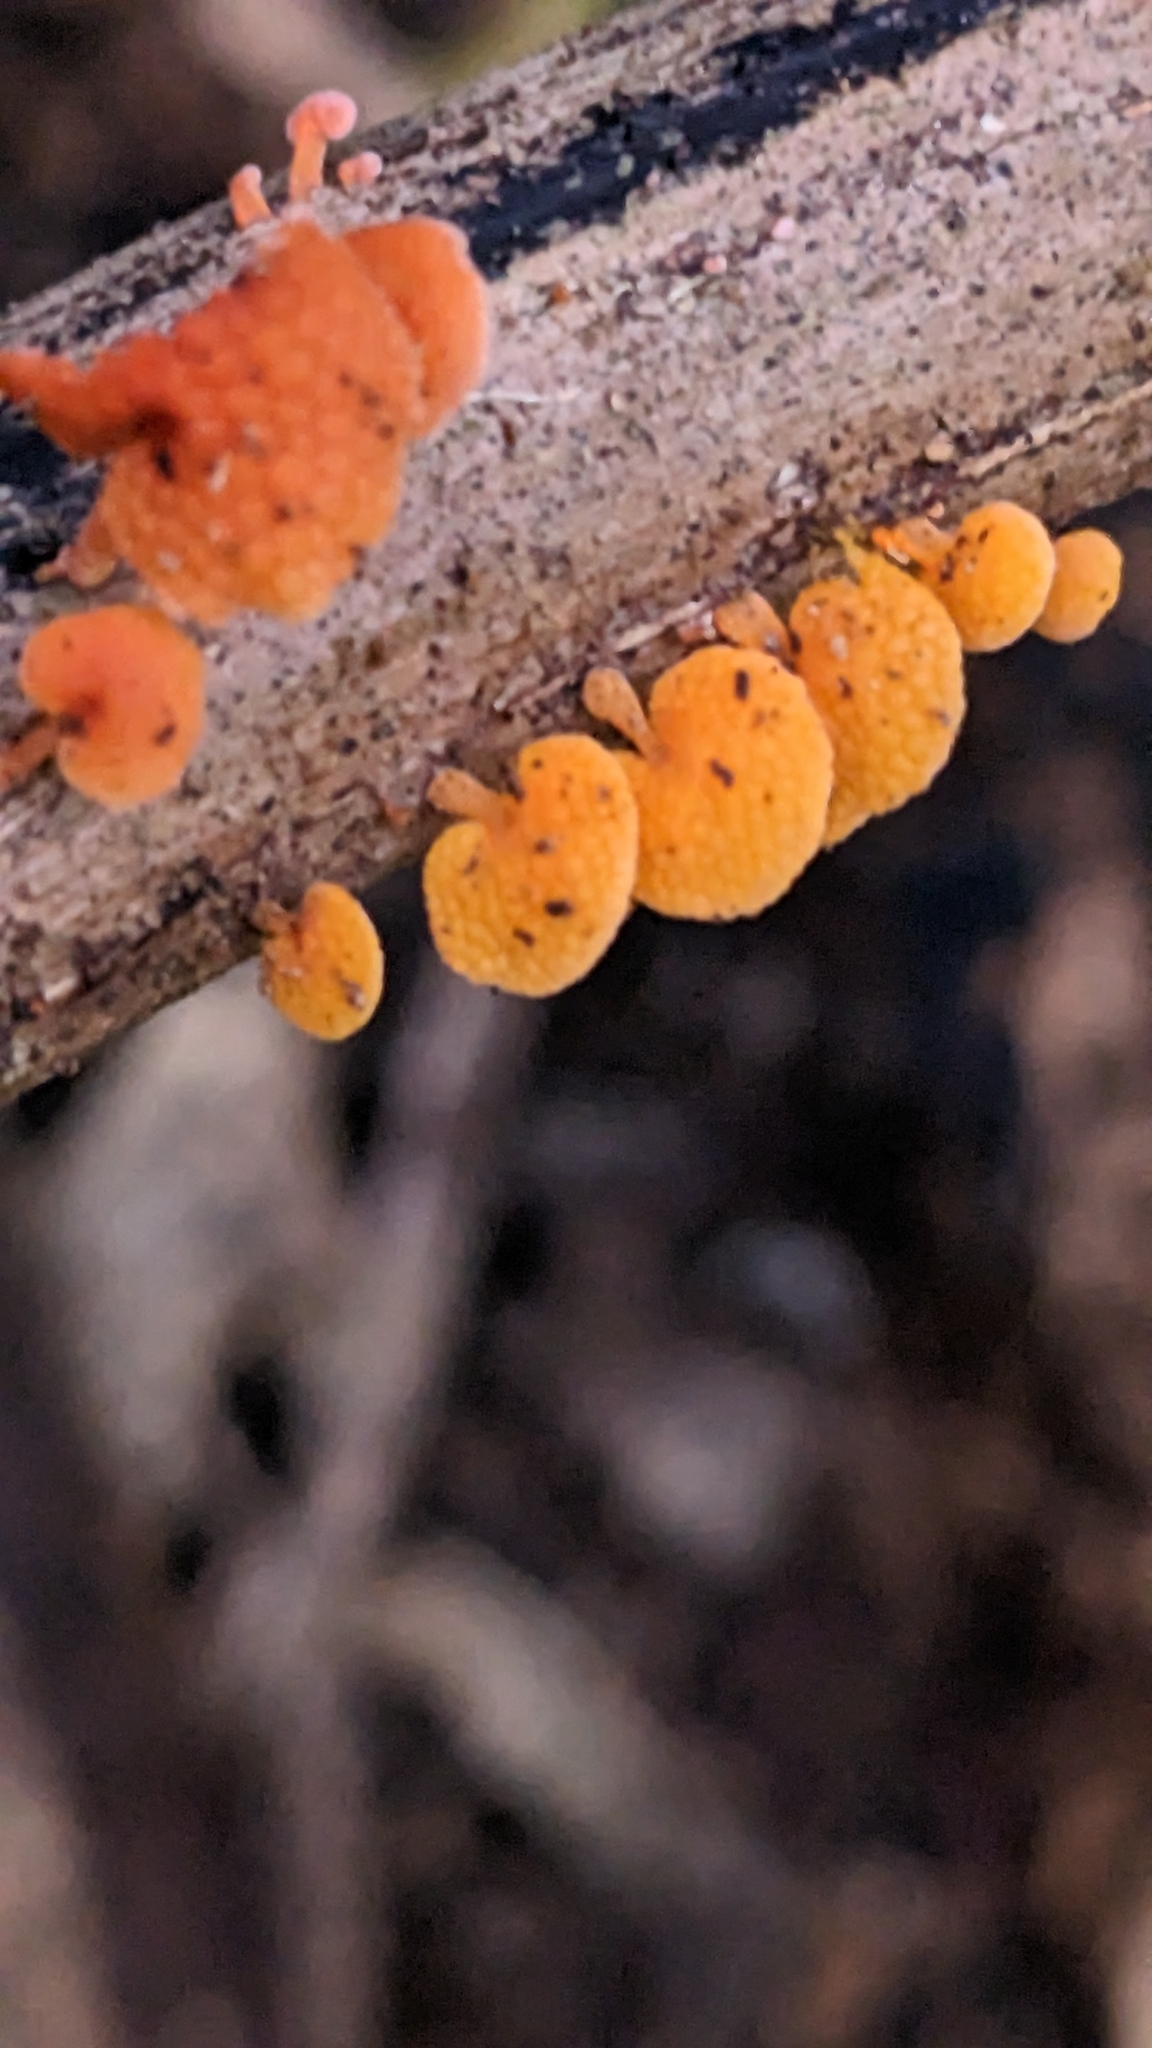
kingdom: Fungi
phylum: Basidiomycota
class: Agaricomycetes
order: Agaricales
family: Mycenaceae
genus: Favolaschia
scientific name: Favolaschia claudopus
